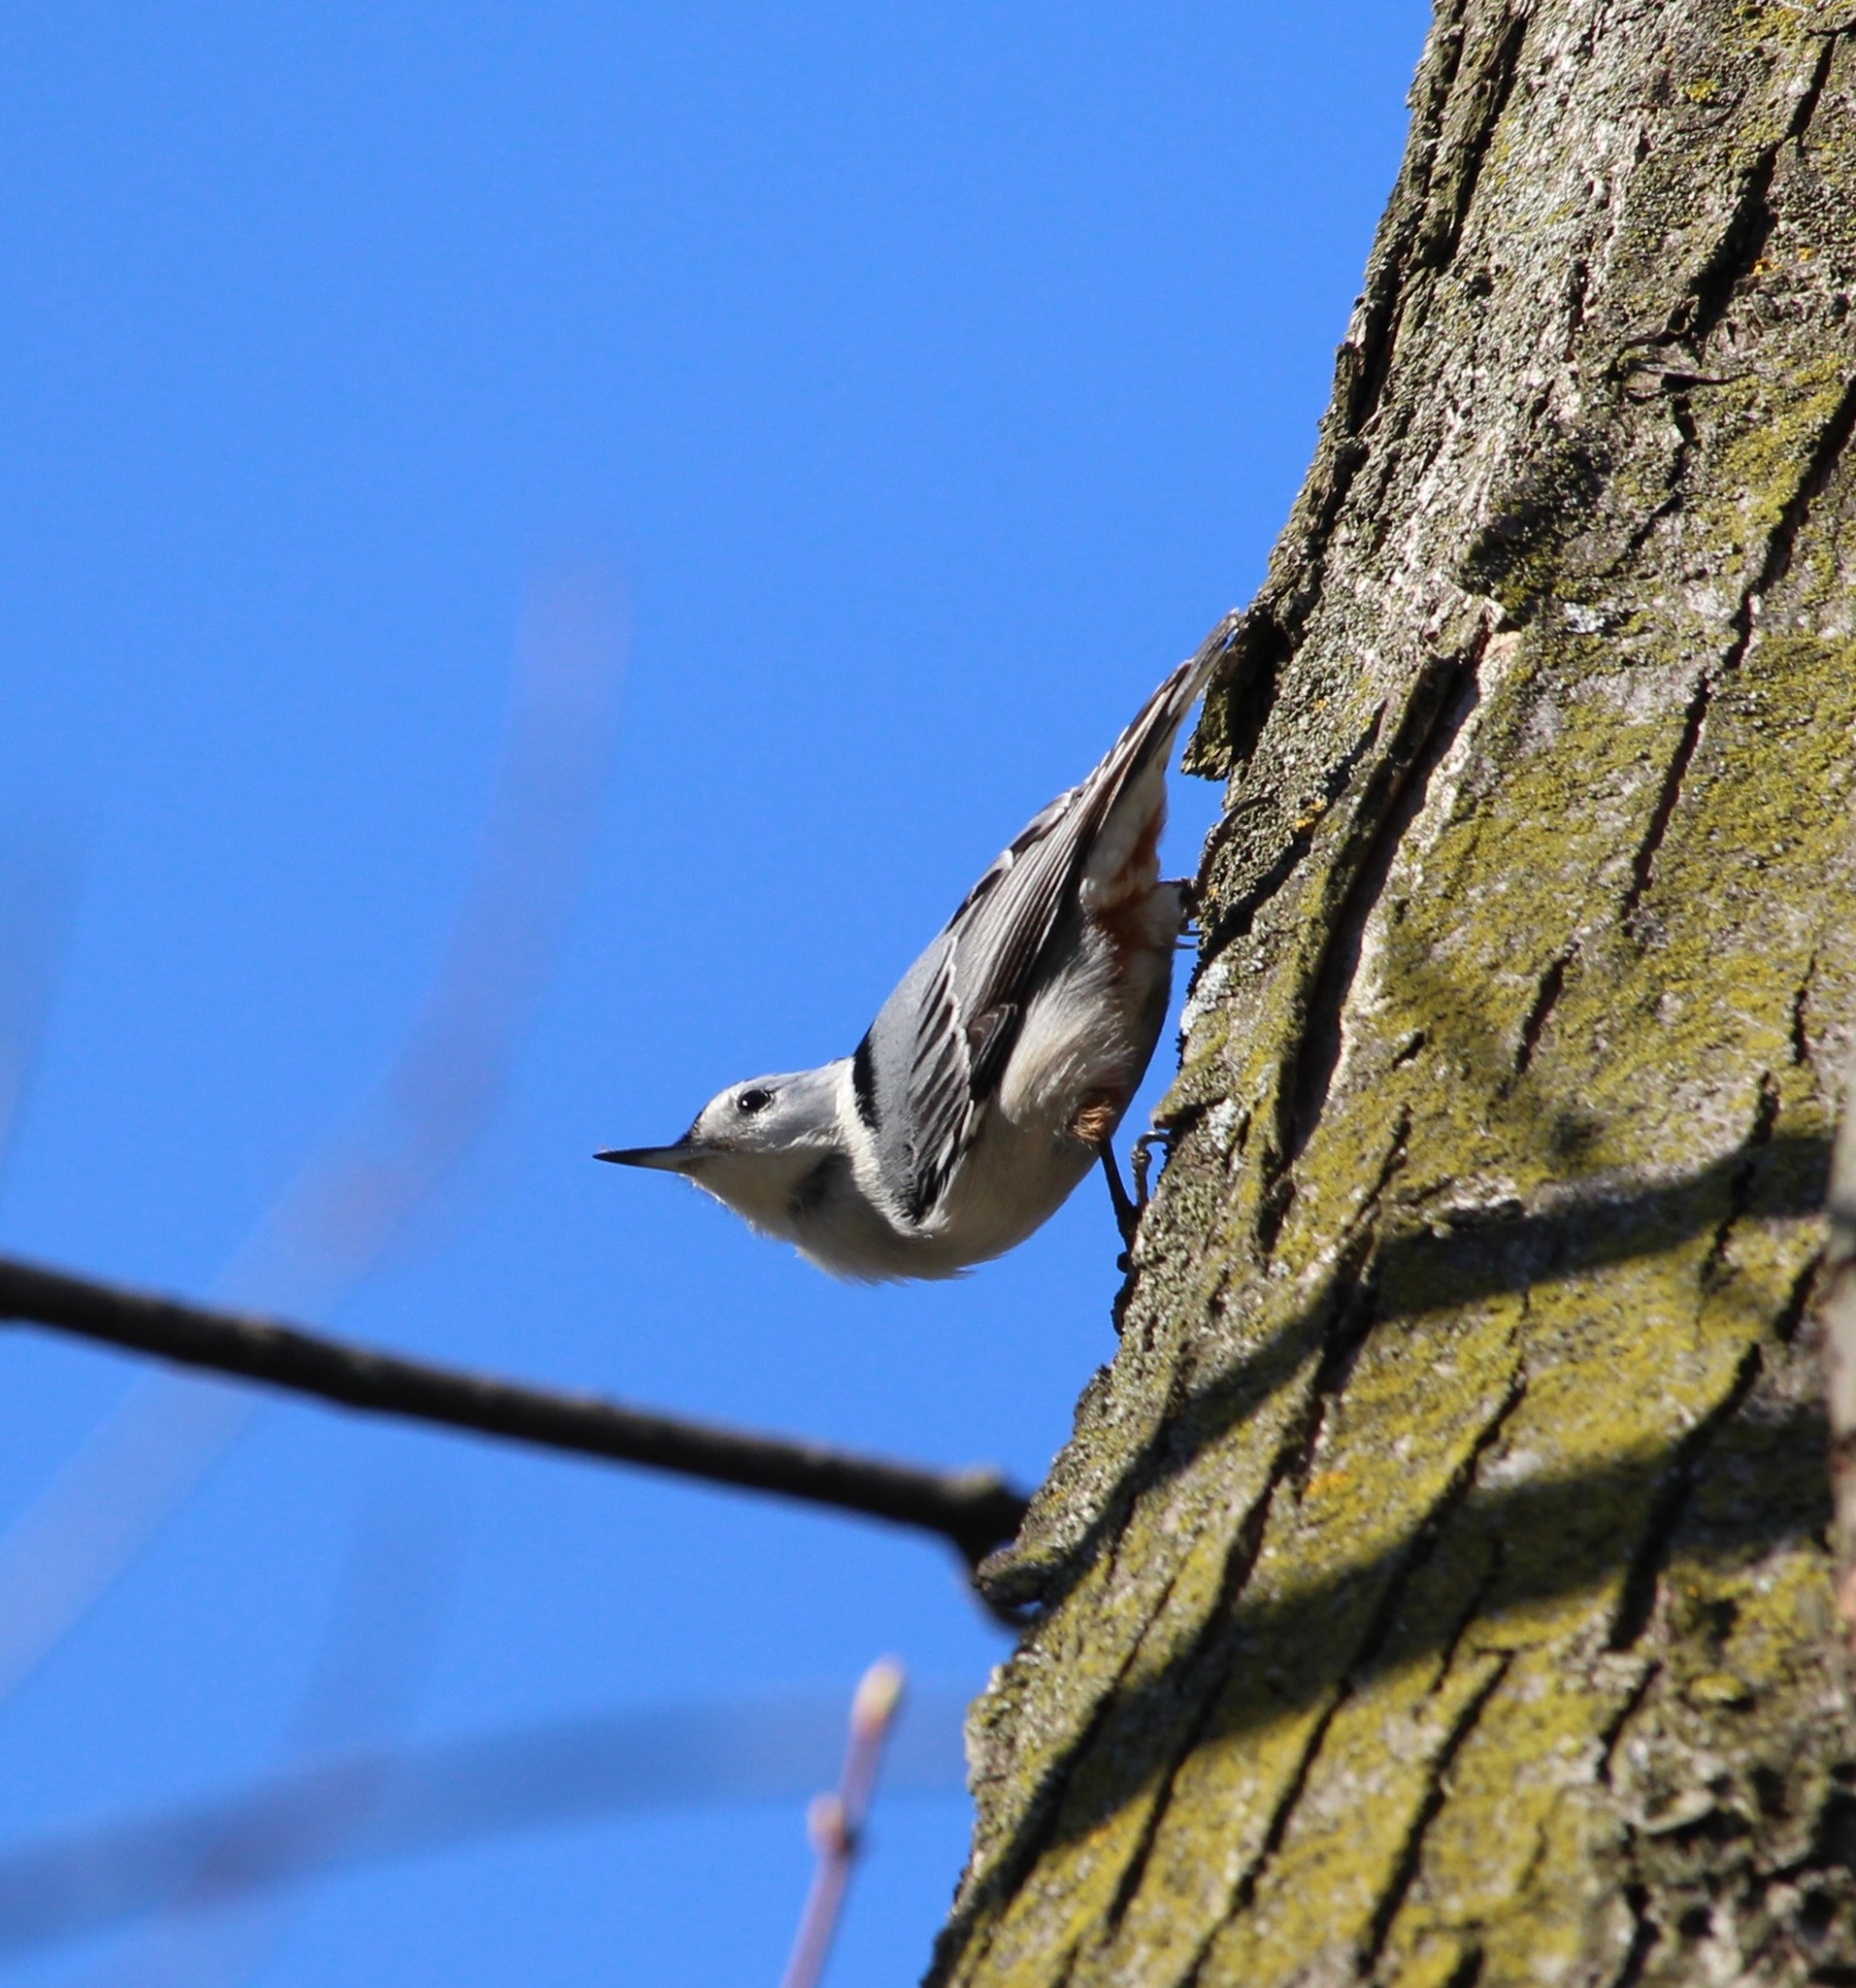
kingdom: Animalia
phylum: Chordata
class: Aves
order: Passeriformes
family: Sittidae
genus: Sitta
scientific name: Sitta carolinensis
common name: White-breasted nuthatch
